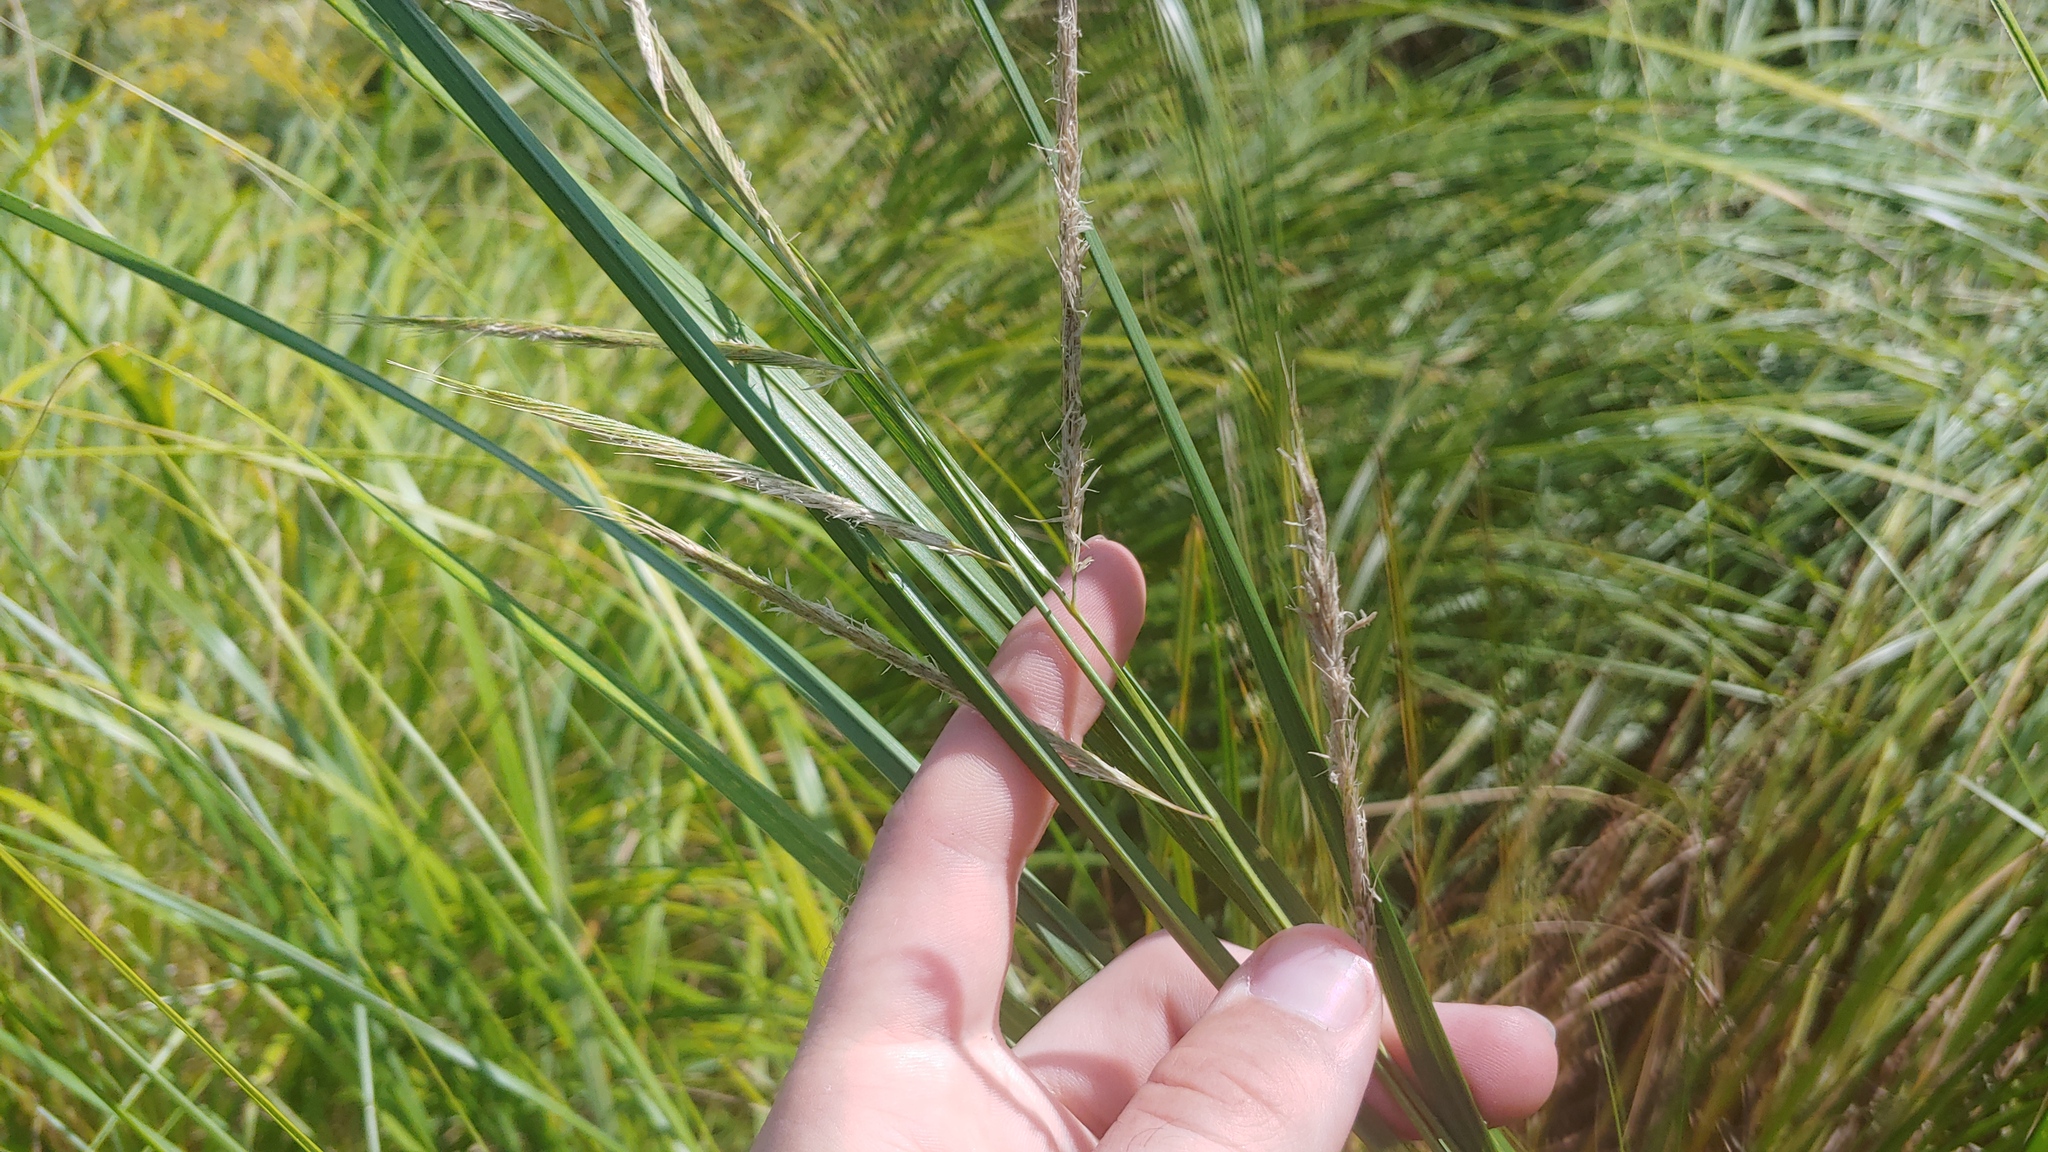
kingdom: Plantae
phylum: Tracheophyta
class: Liliopsida
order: Poales
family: Poaceae
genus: Sporobolus
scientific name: Sporobolus michauxianus
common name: Freshwater cordgrass
